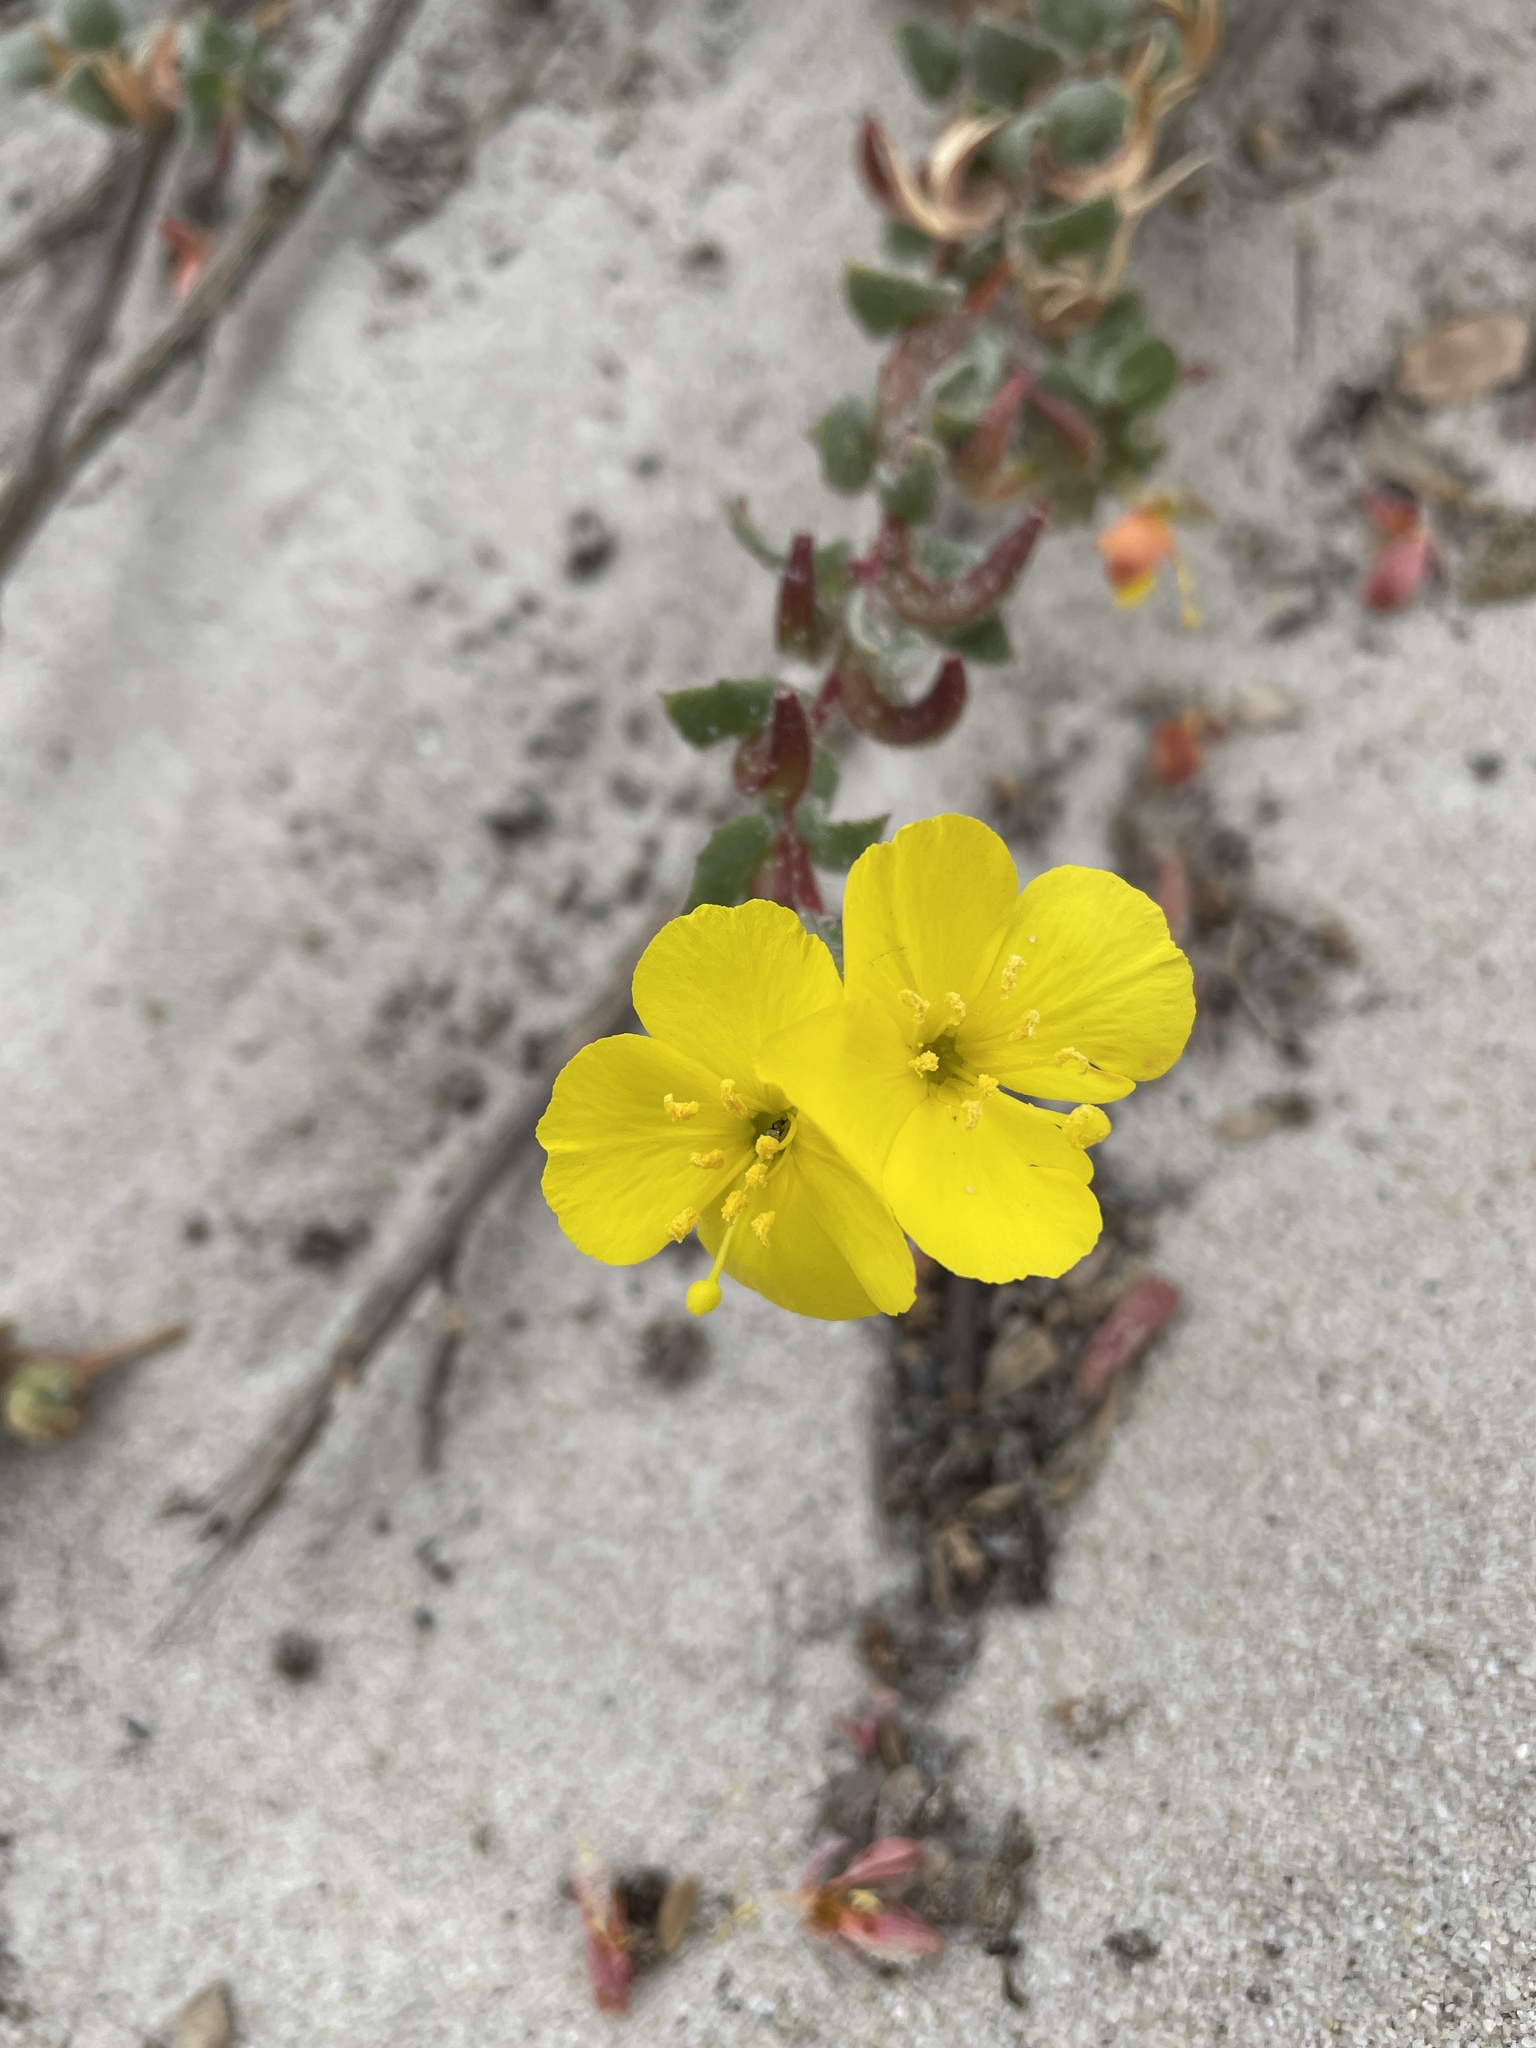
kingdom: Plantae
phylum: Tracheophyta
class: Magnoliopsida
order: Myrtales
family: Onagraceae
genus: Camissoniopsis
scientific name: Camissoniopsis cheiranthifolia
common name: Beach suncup
